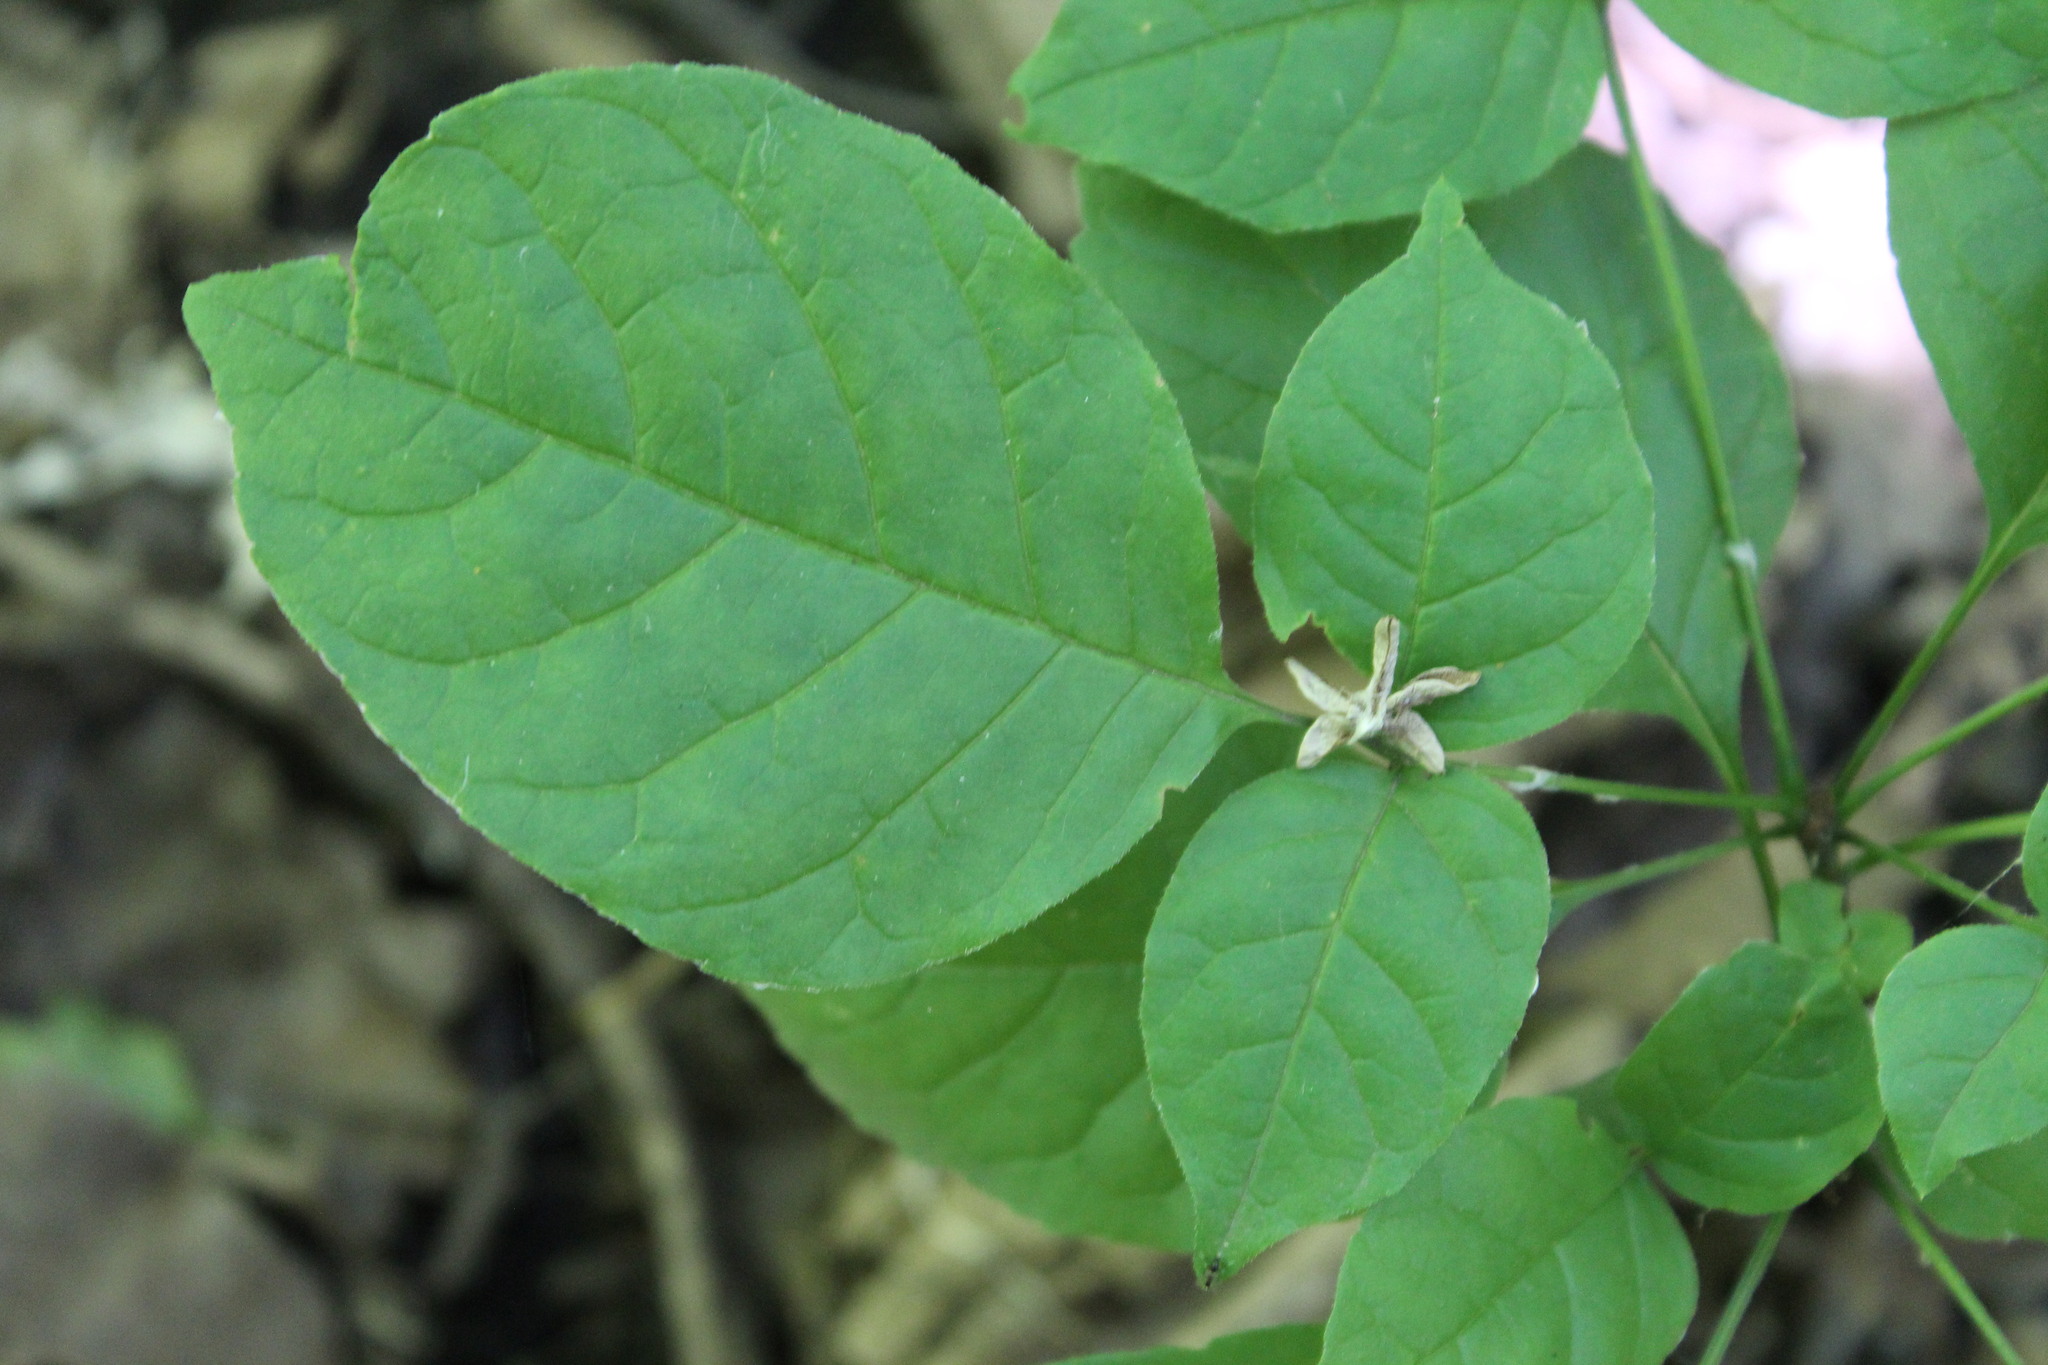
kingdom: Plantae
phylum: Tracheophyta
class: Magnoliopsida
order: Lamiales
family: Oleaceae
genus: Fraxinus
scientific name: Fraxinus americana
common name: White ash
